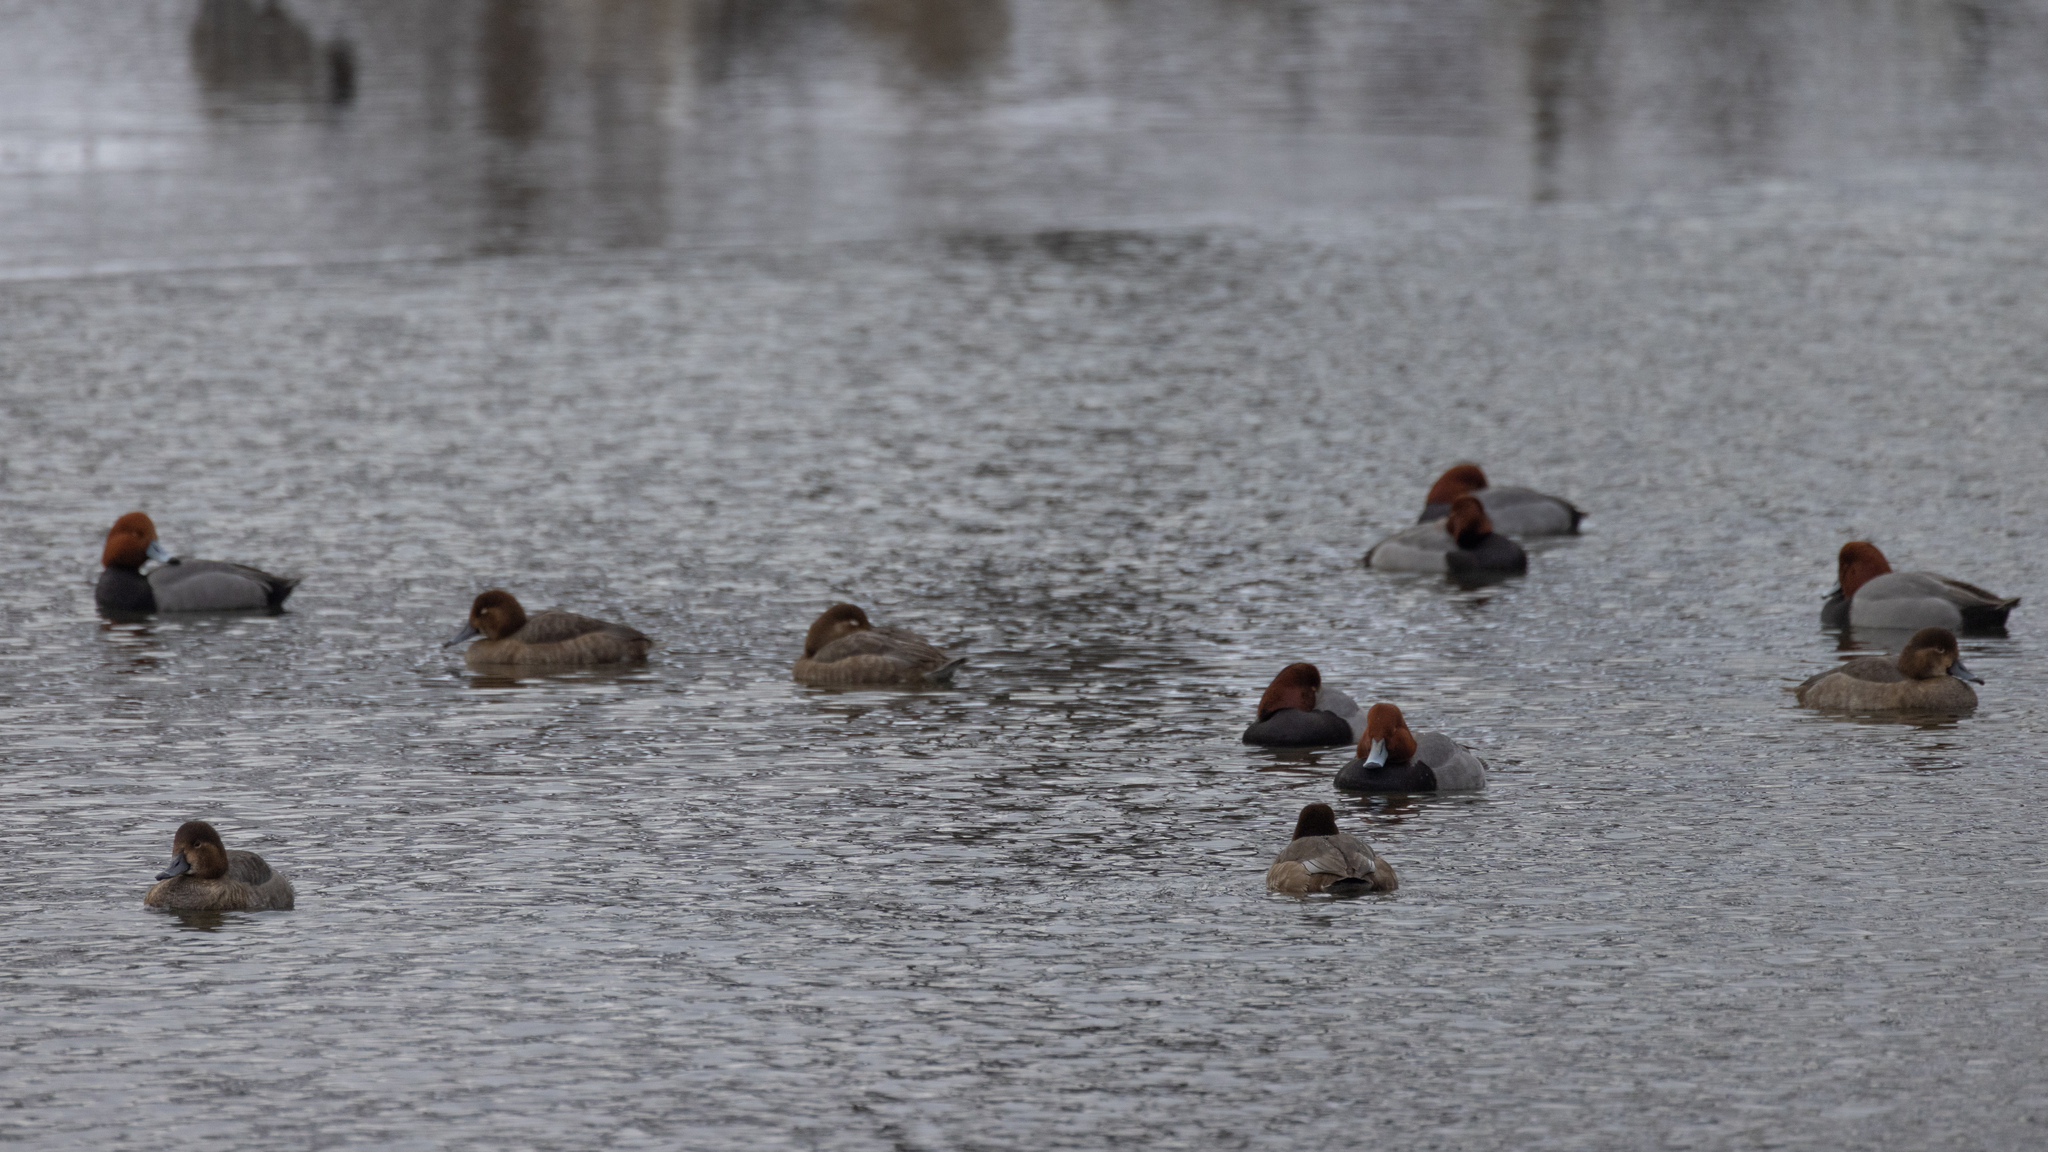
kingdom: Animalia
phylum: Chordata
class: Aves
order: Anseriformes
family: Anatidae
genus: Aythya
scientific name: Aythya americana
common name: Redhead
